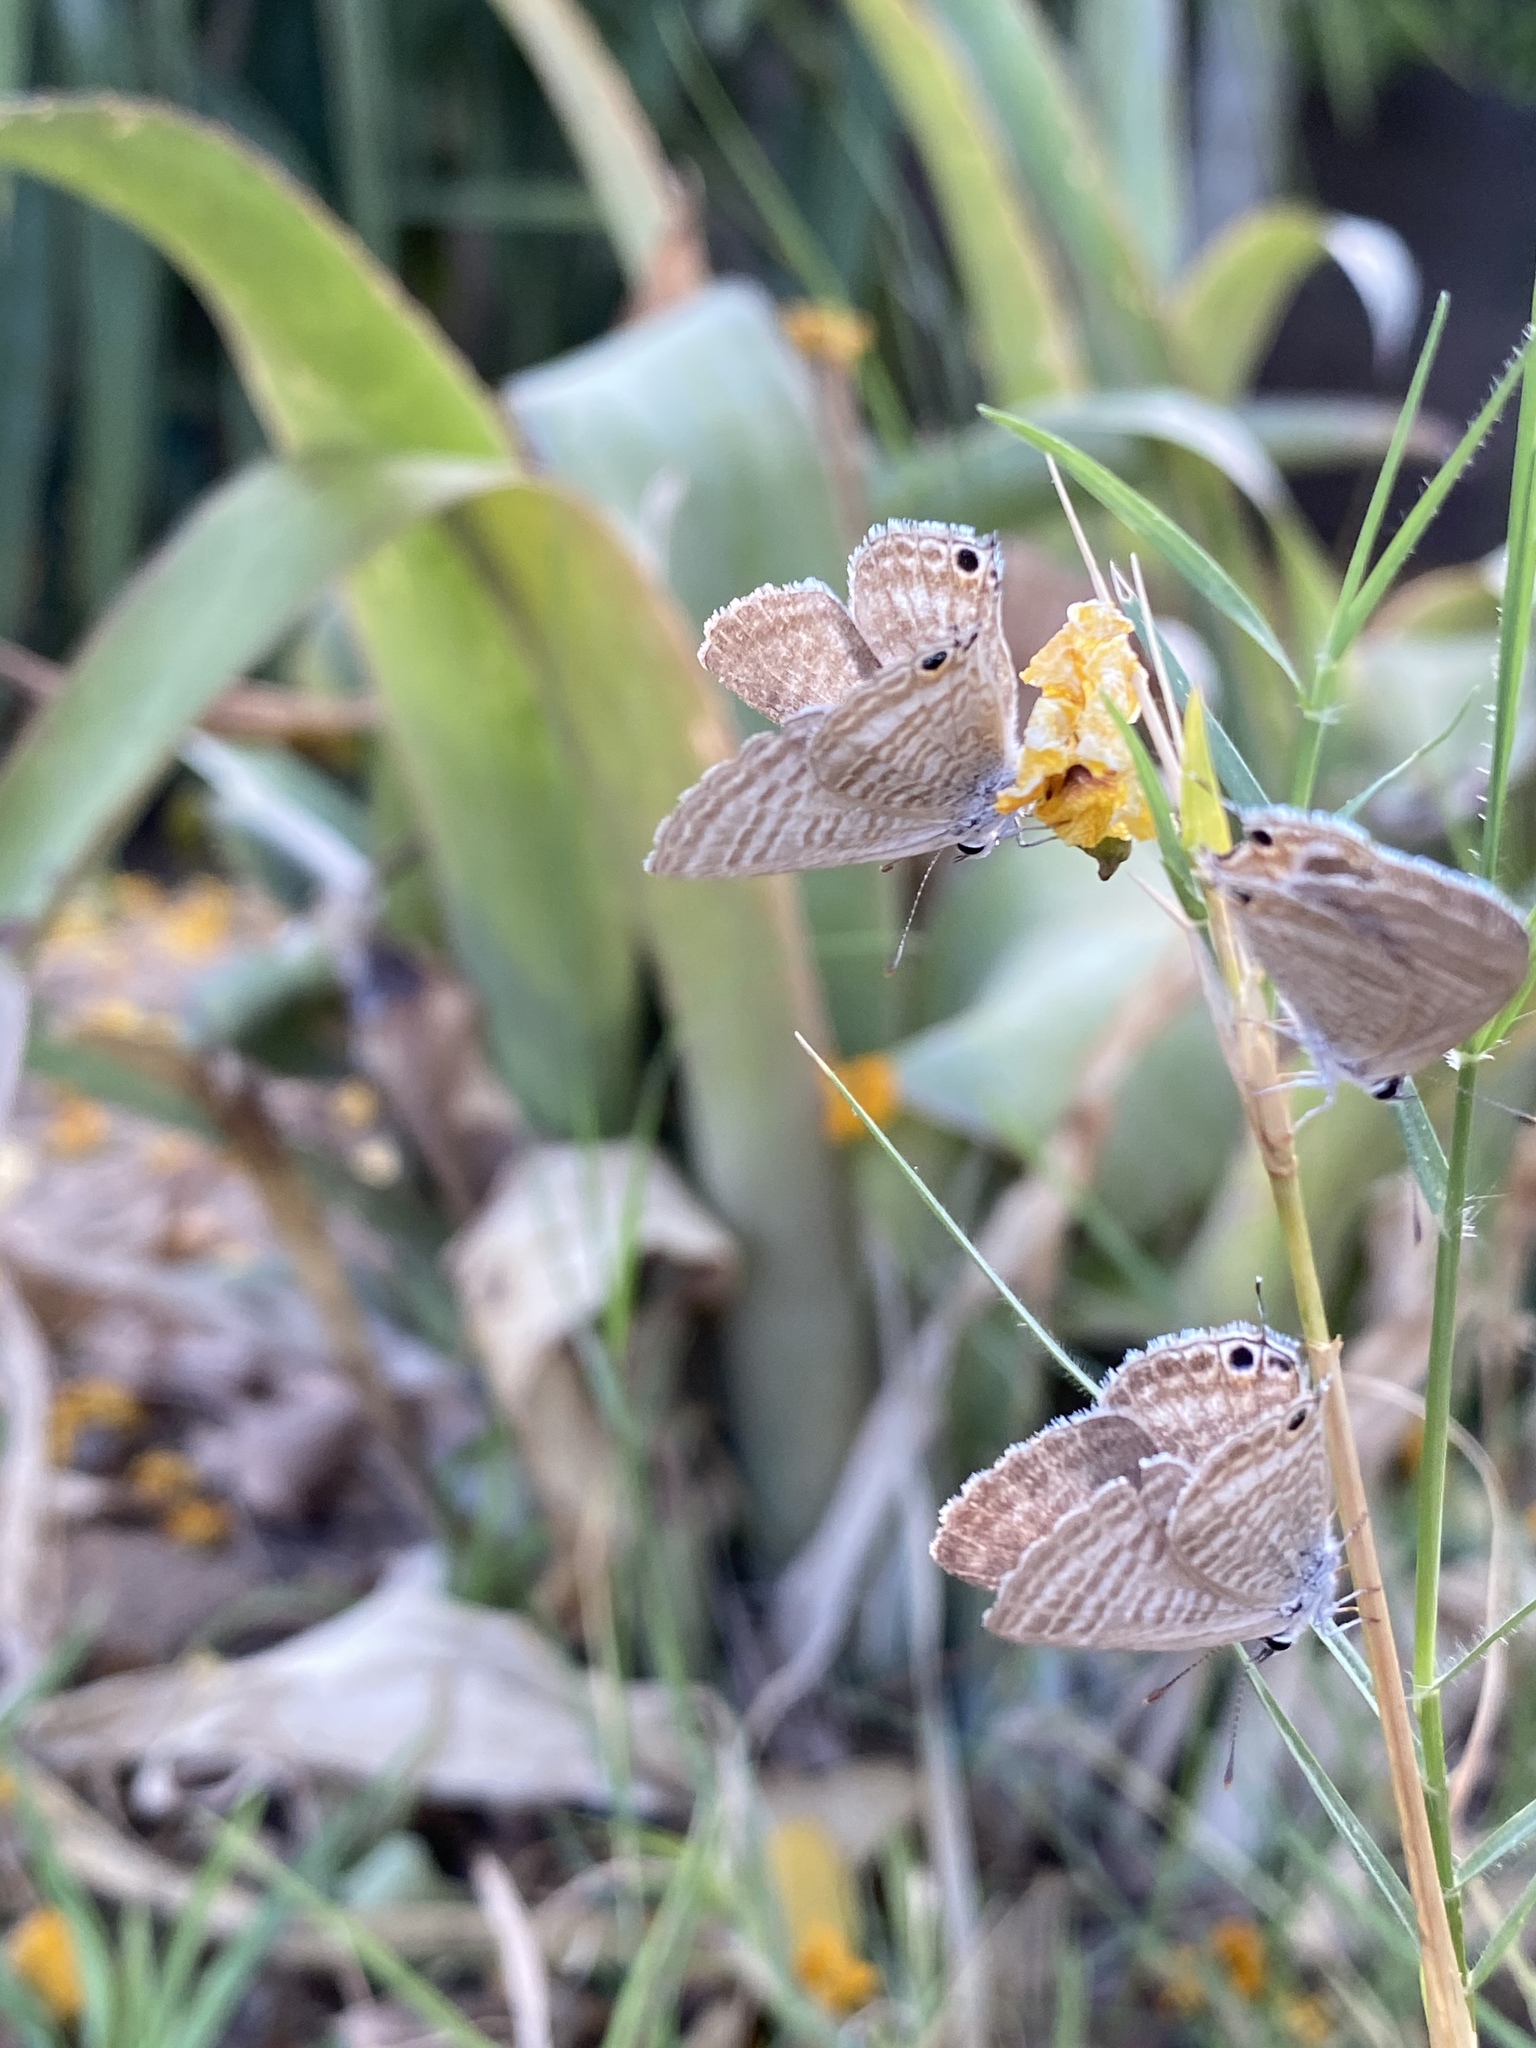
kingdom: Animalia
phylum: Arthropoda
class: Insecta
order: Lepidoptera
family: Lycaenidae
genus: Lampides
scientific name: Lampides boeticus
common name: Long-tailed blue
